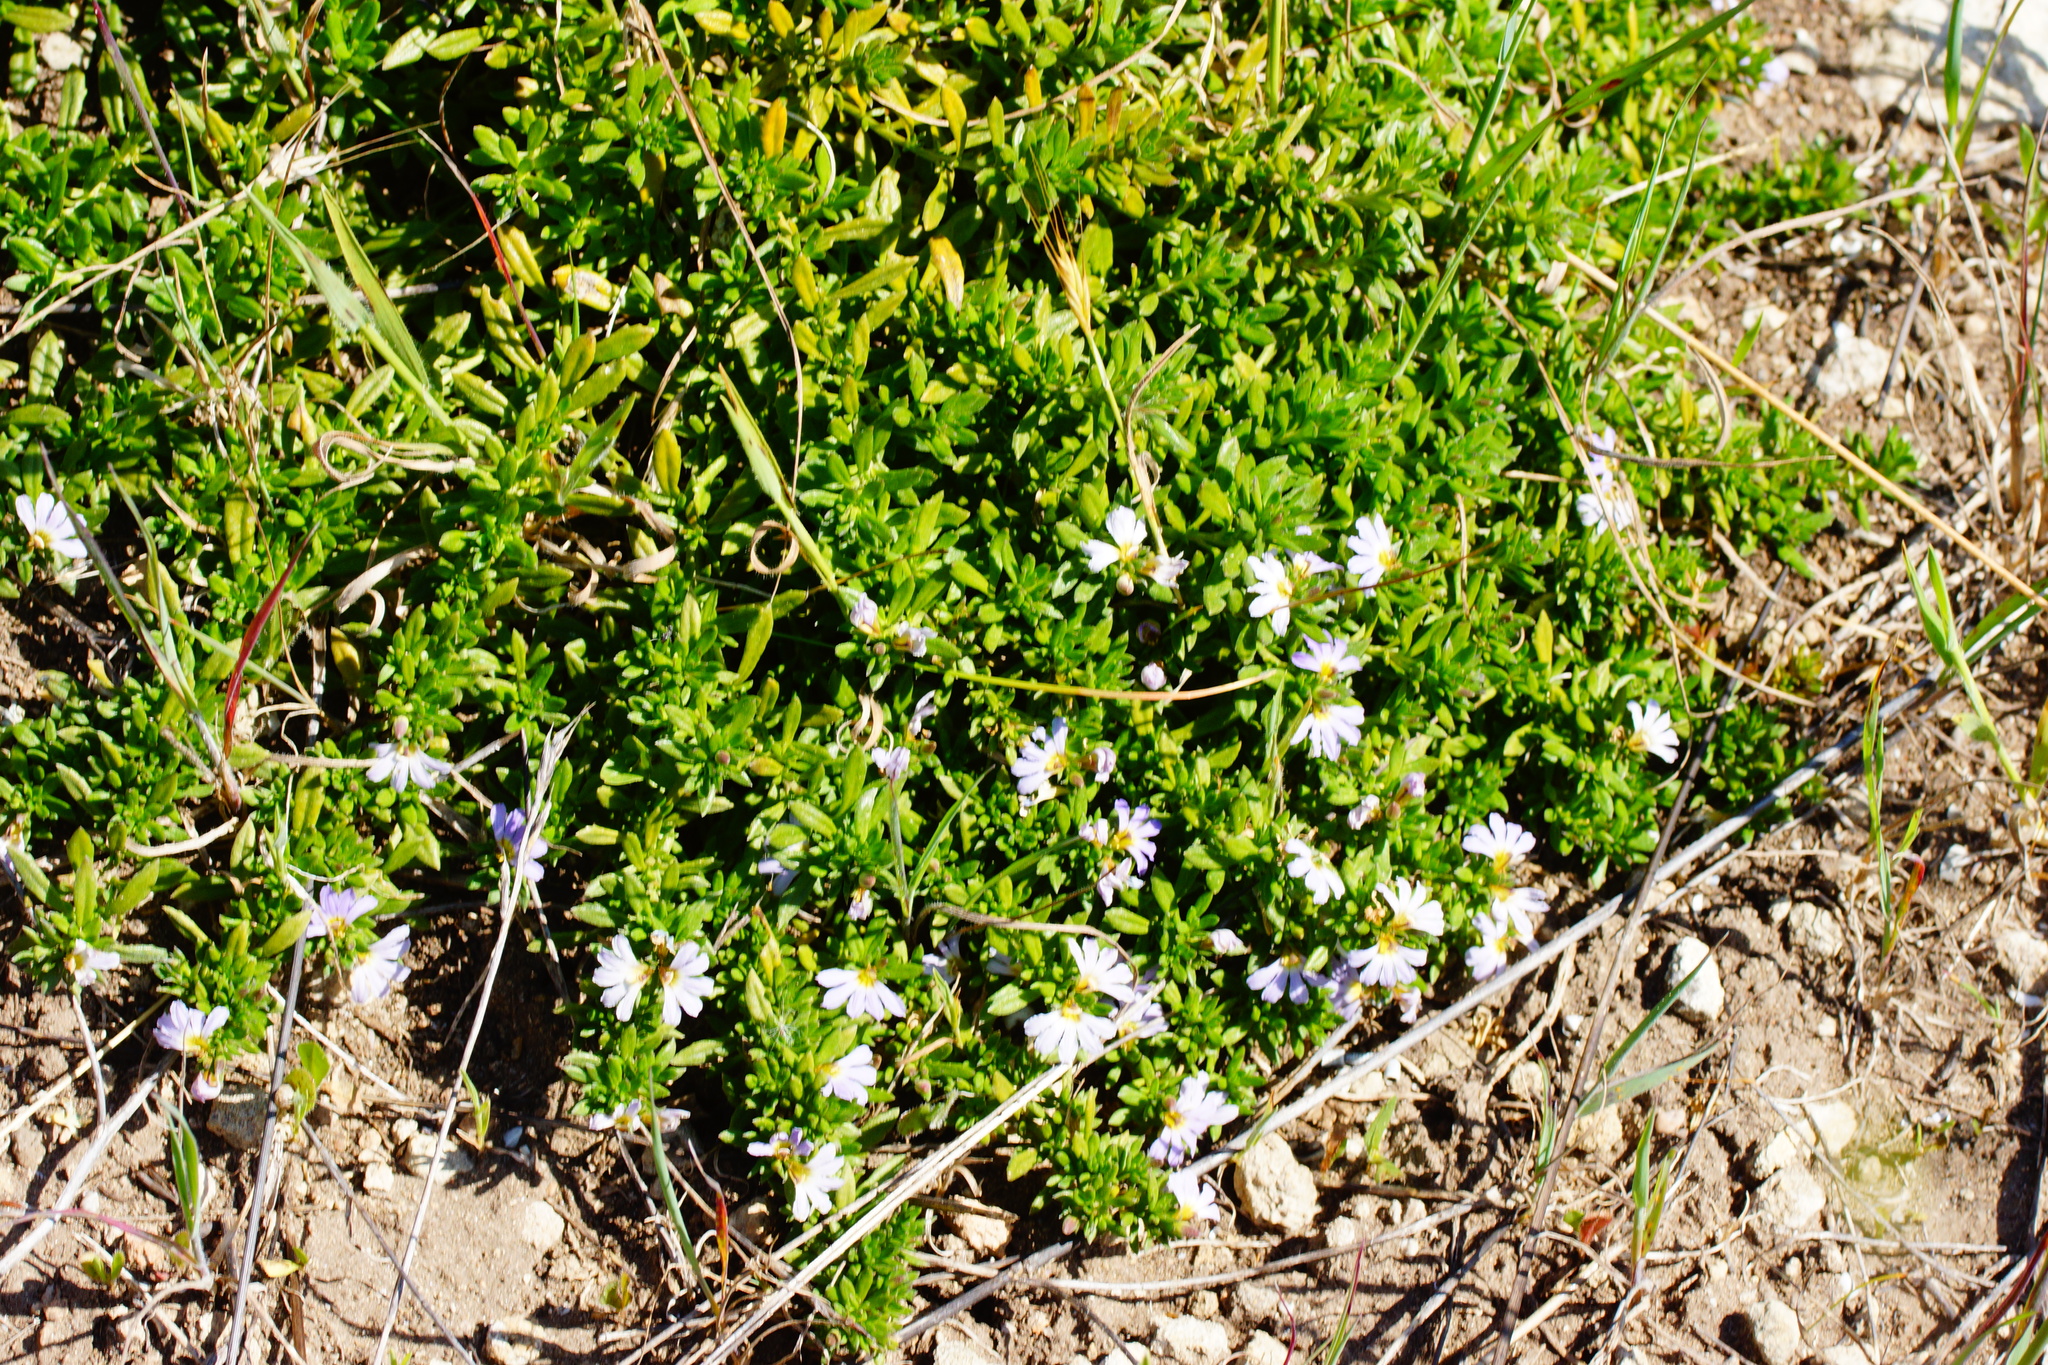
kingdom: Plantae
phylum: Tracheophyta
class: Magnoliopsida
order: Asterales
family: Goodeniaceae
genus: Scaevola
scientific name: Scaevola albida
